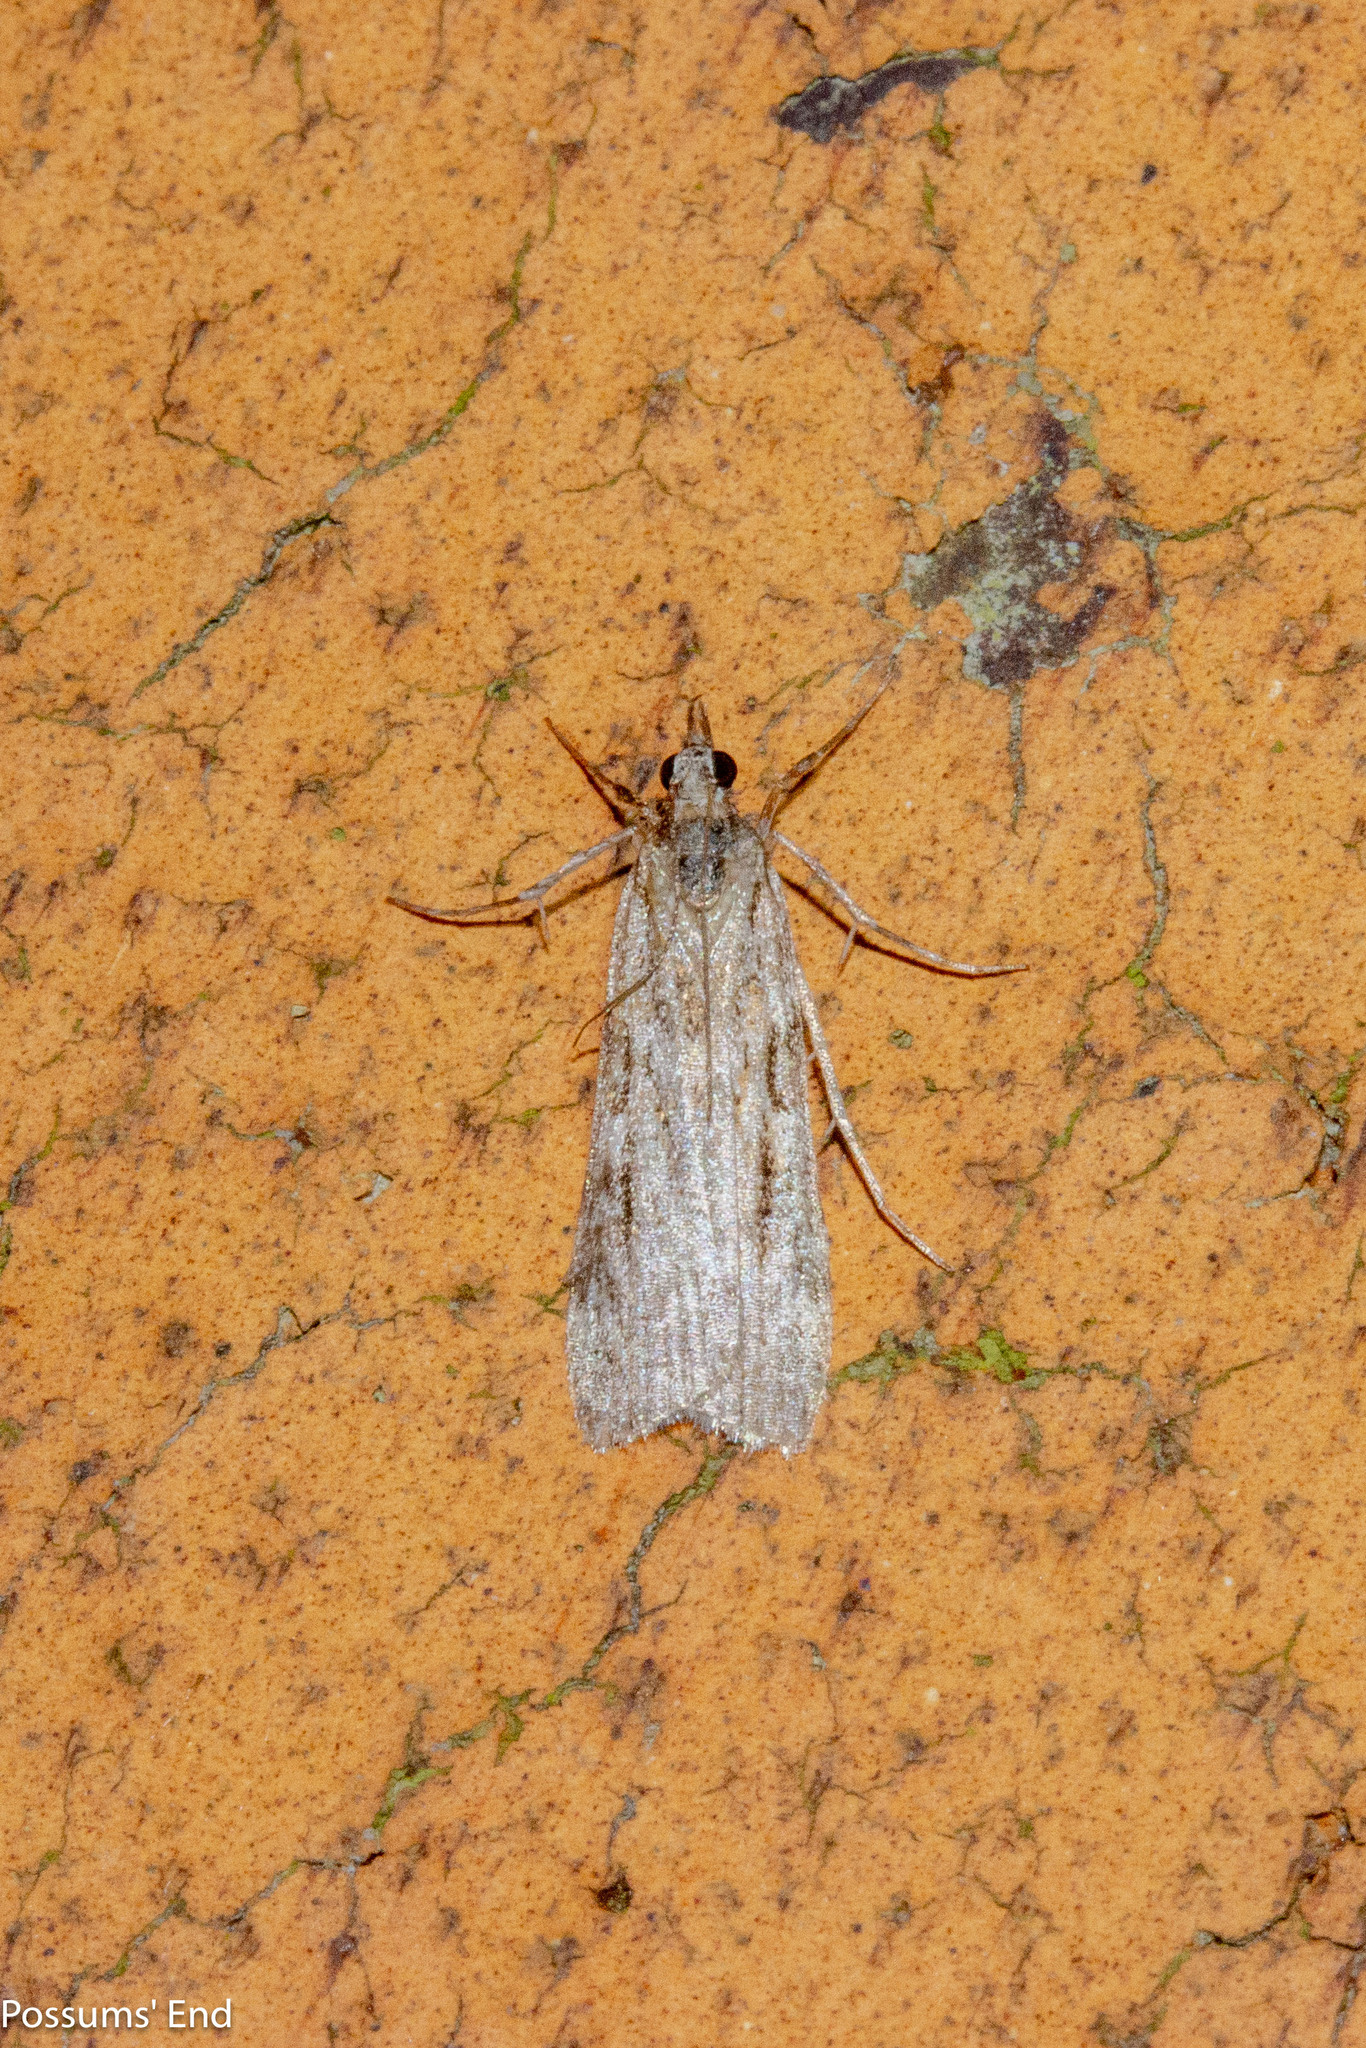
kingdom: Animalia
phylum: Arthropoda
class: Insecta
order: Lepidoptera
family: Crambidae
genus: Scoparia
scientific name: Scoparia halopis
